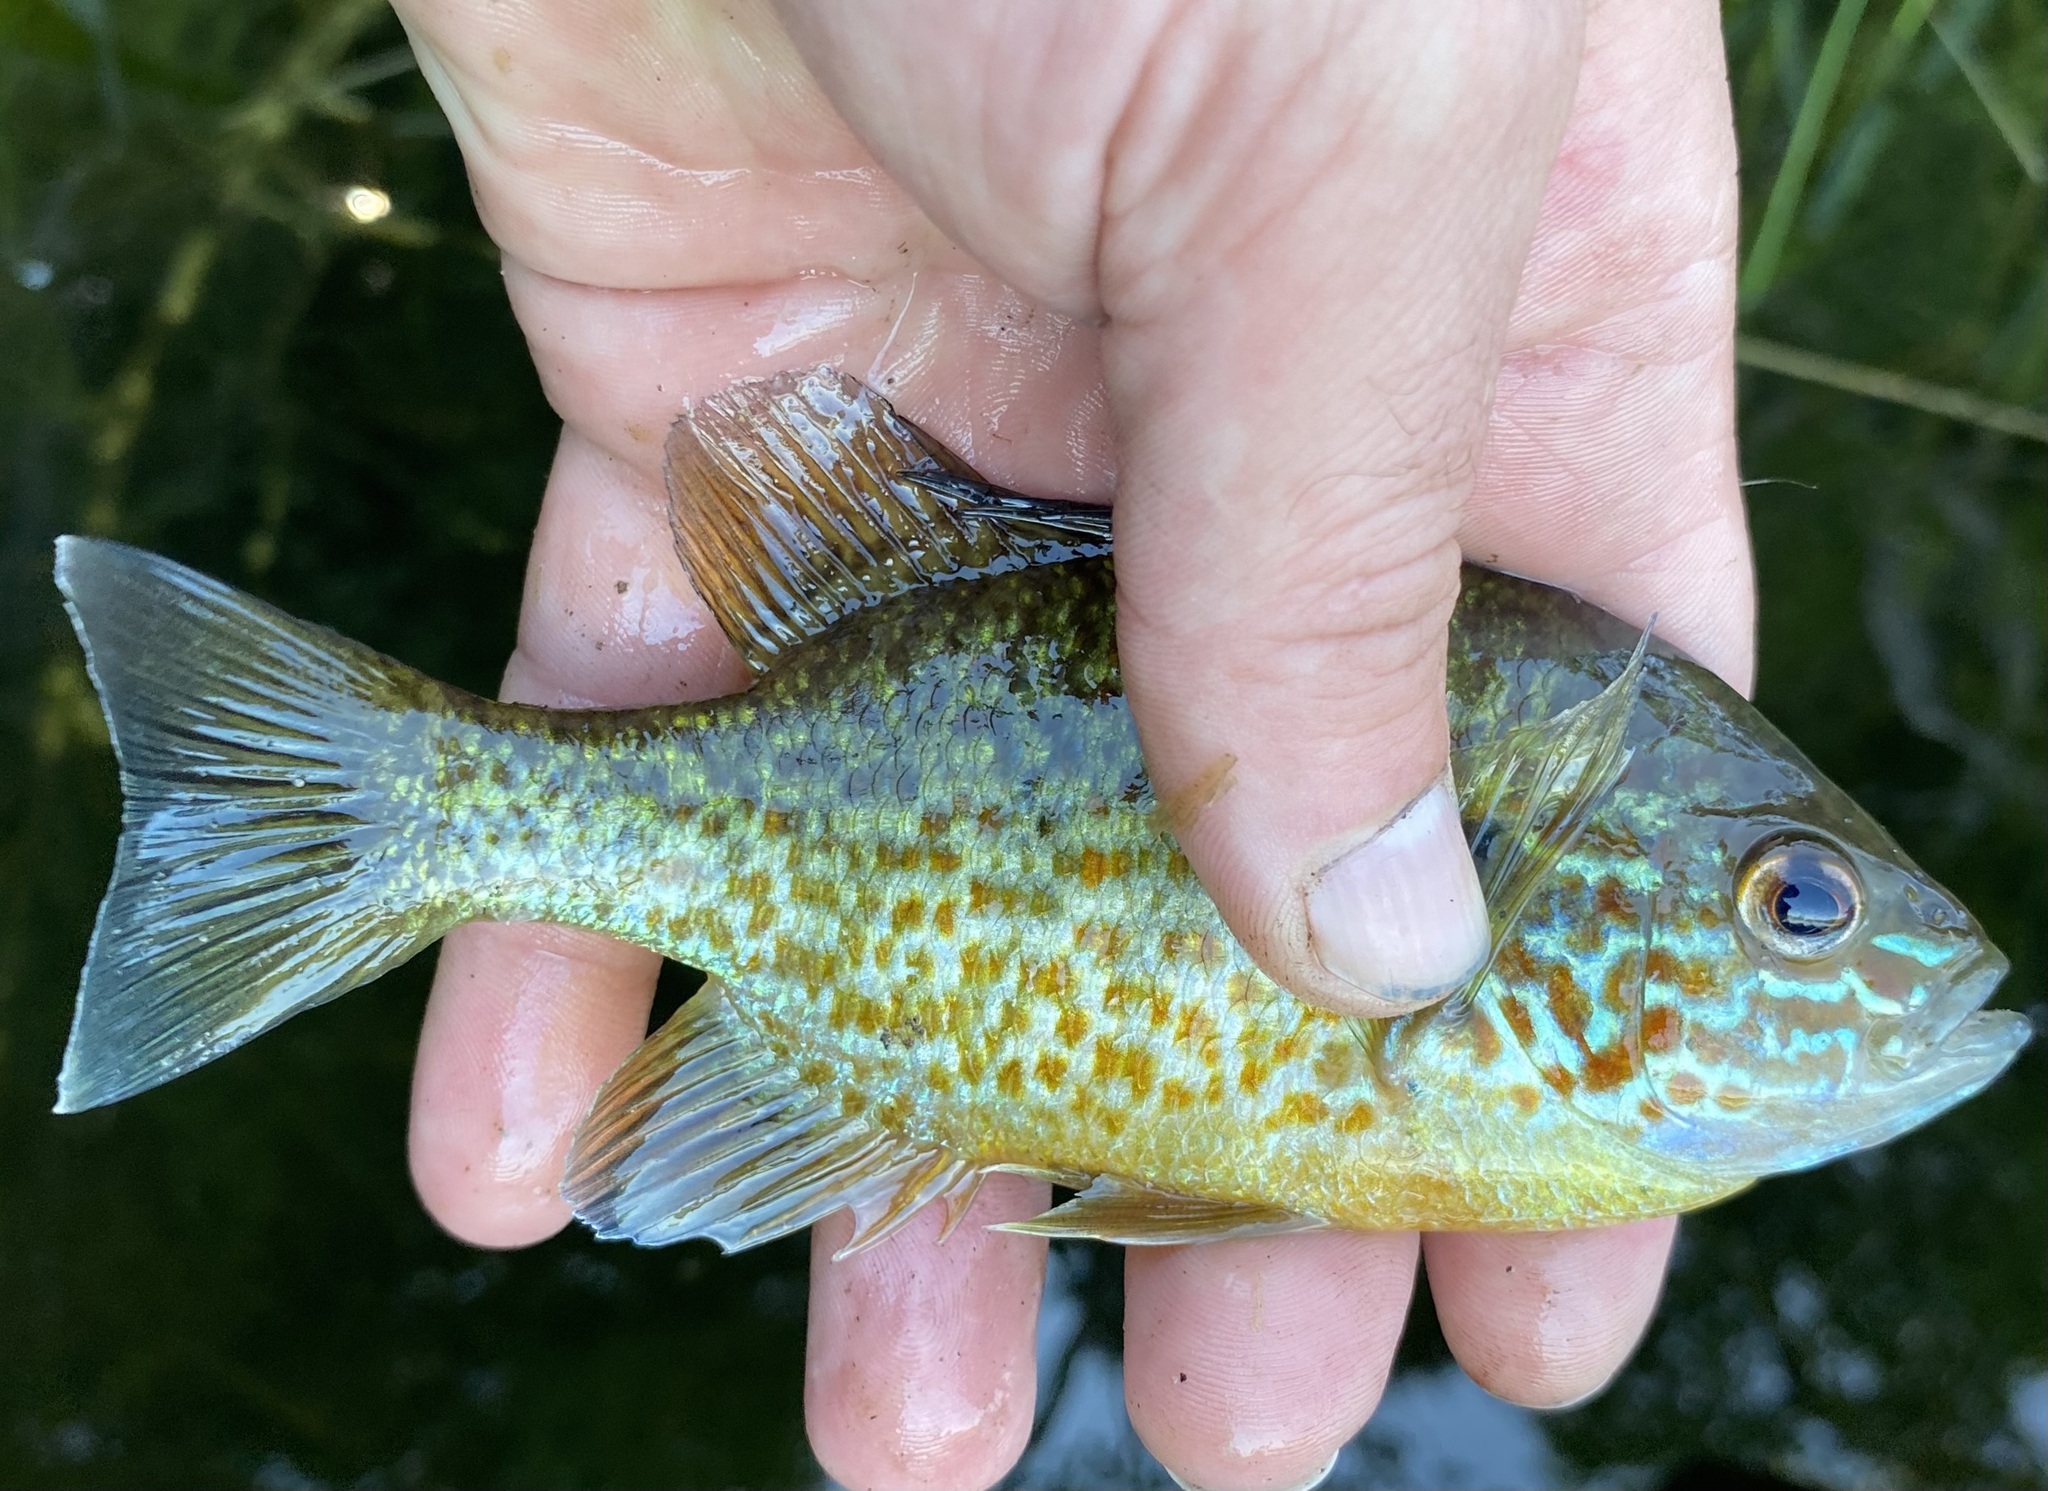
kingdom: Animalia
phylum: Chordata
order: Perciformes
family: Centrarchidae
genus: Lepomis
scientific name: Lepomis gibbosus
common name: Pumpkinseed
